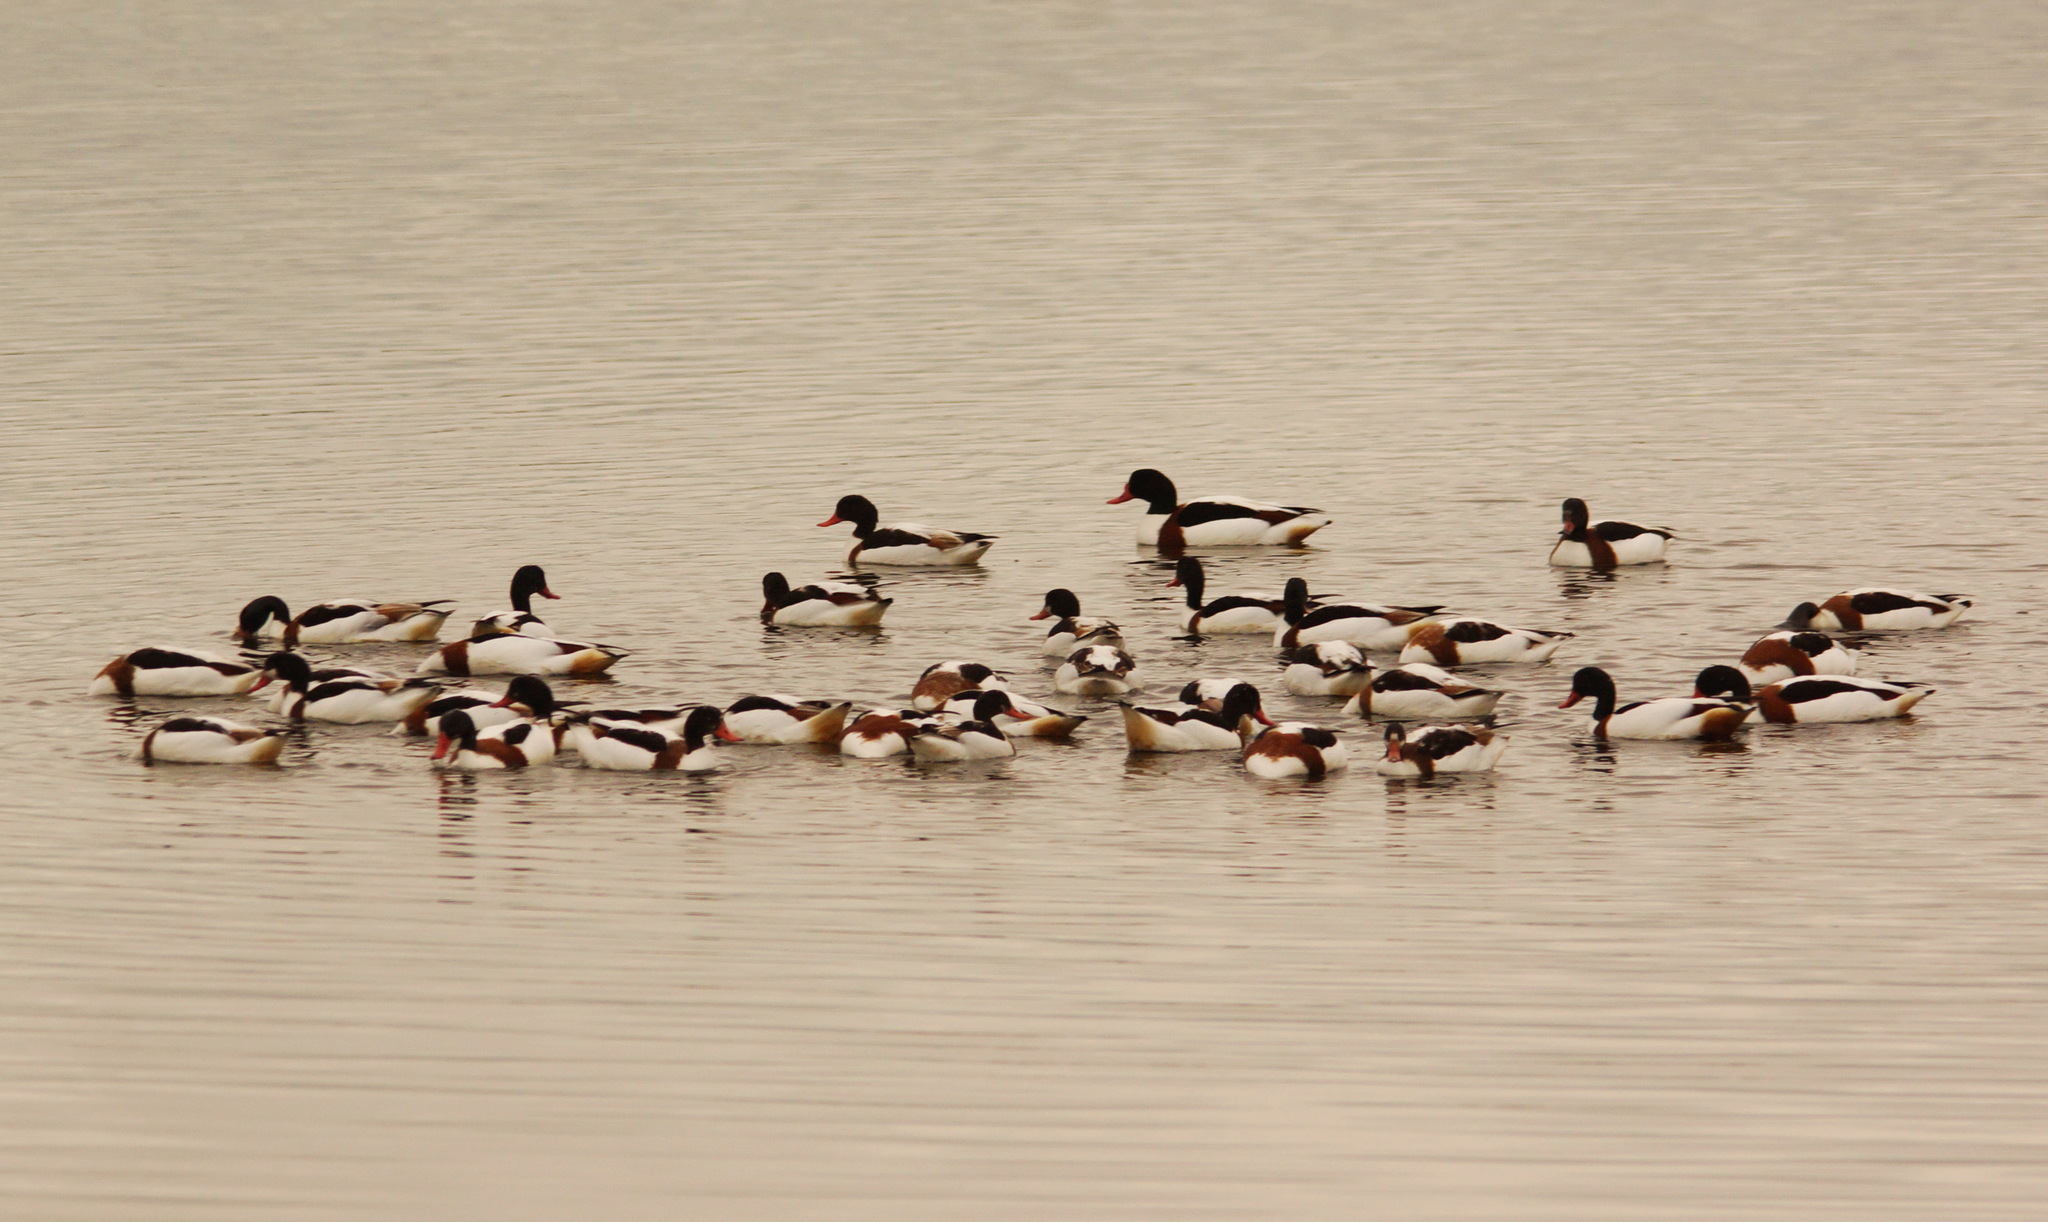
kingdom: Animalia
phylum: Chordata
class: Aves
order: Anseriformes
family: Anatidae
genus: Tadorna
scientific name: Tadorna tadorna
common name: Common shelduck
